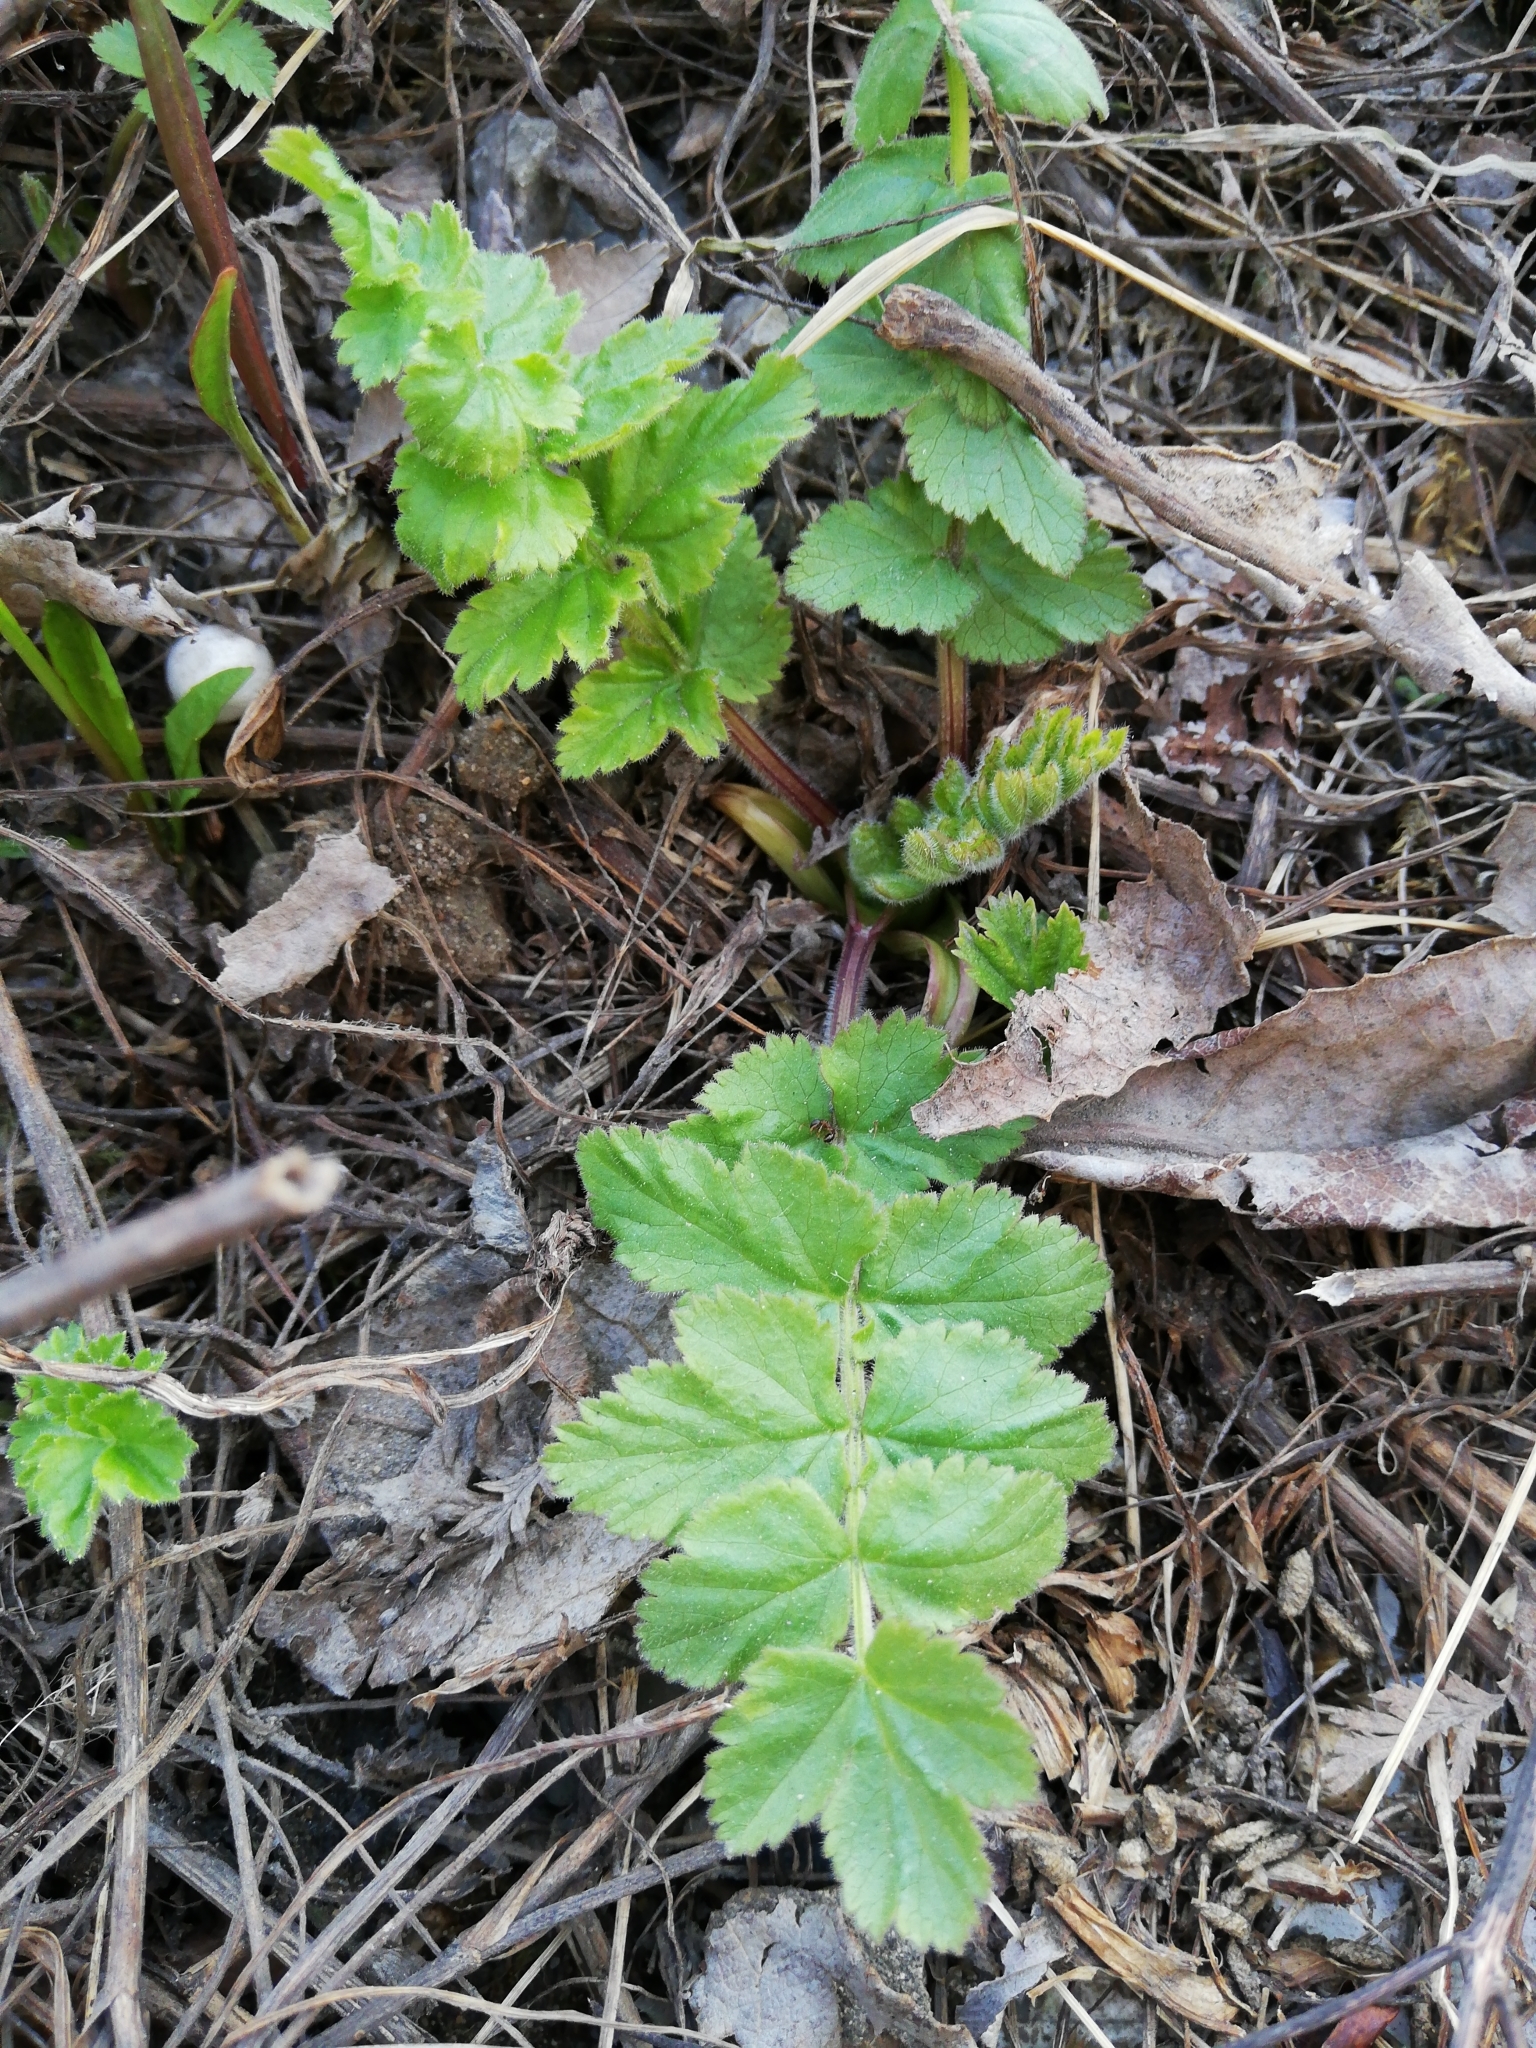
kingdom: Plantae
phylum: Tracheophyta
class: Magnoliopsida
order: Apiales
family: Apiaceae
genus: Pastinaca
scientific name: Pastinaca sativa
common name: Wild parsnip
